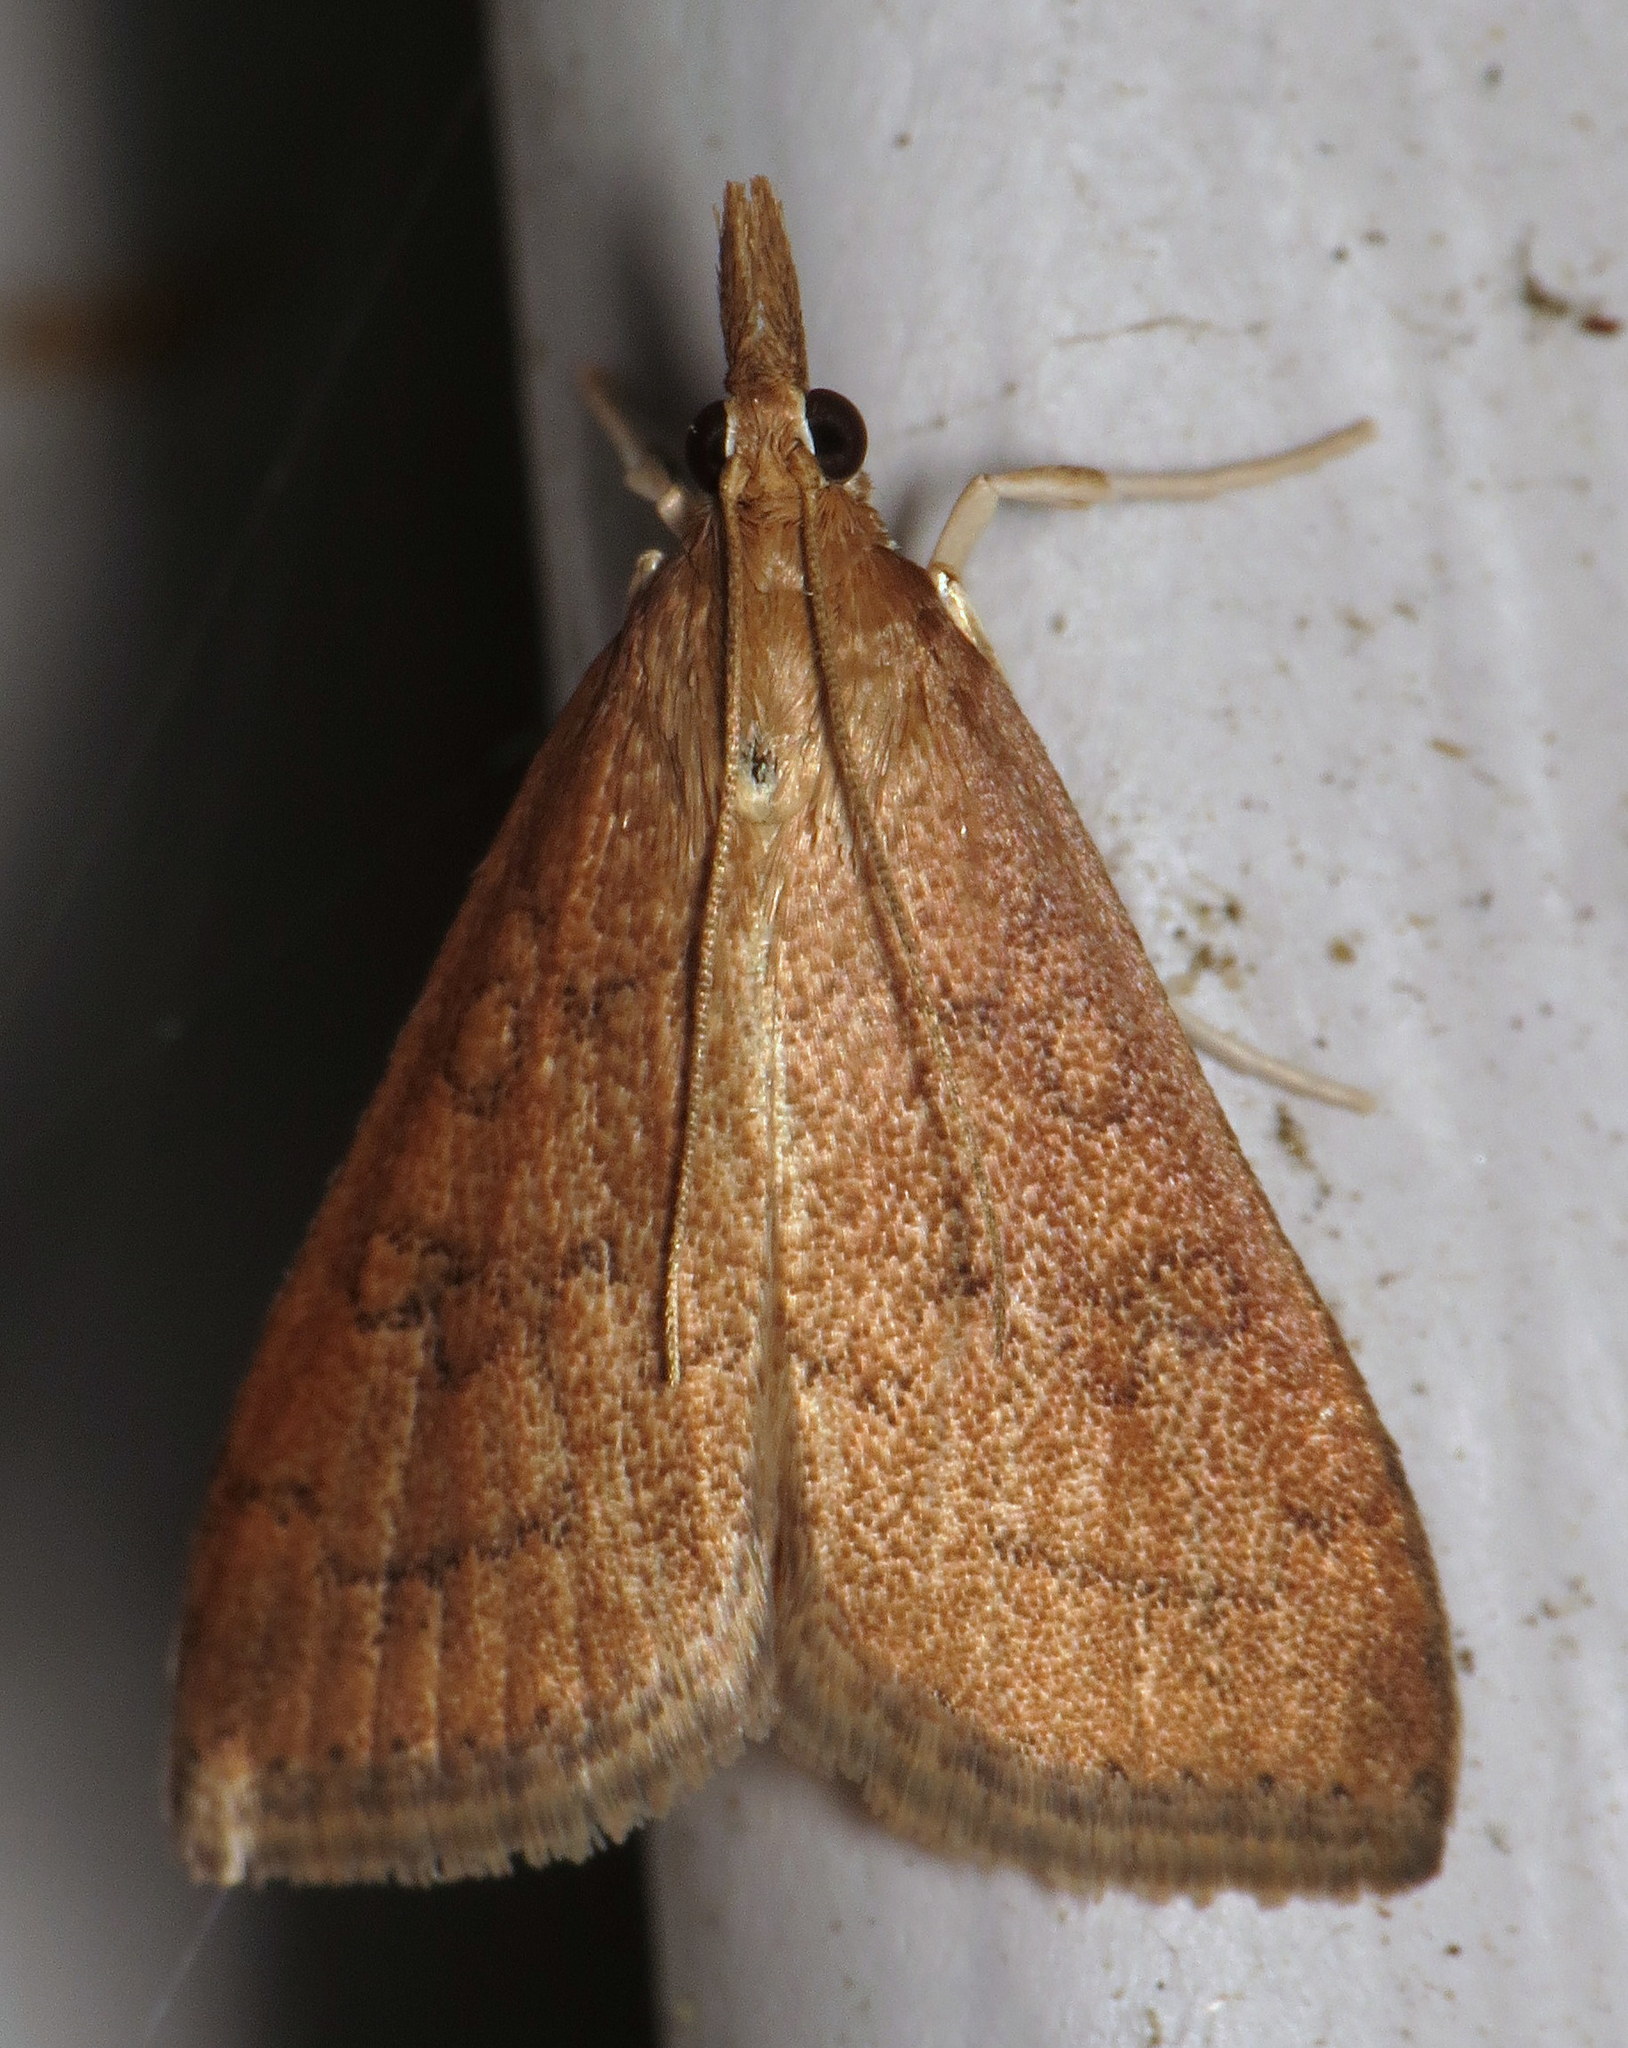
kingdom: Animalia
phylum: Arthropoda
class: Insecta
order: Lepidoptera
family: Crambidae
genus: Udea
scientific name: Udea rubigalis
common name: Celery leaftier moth
